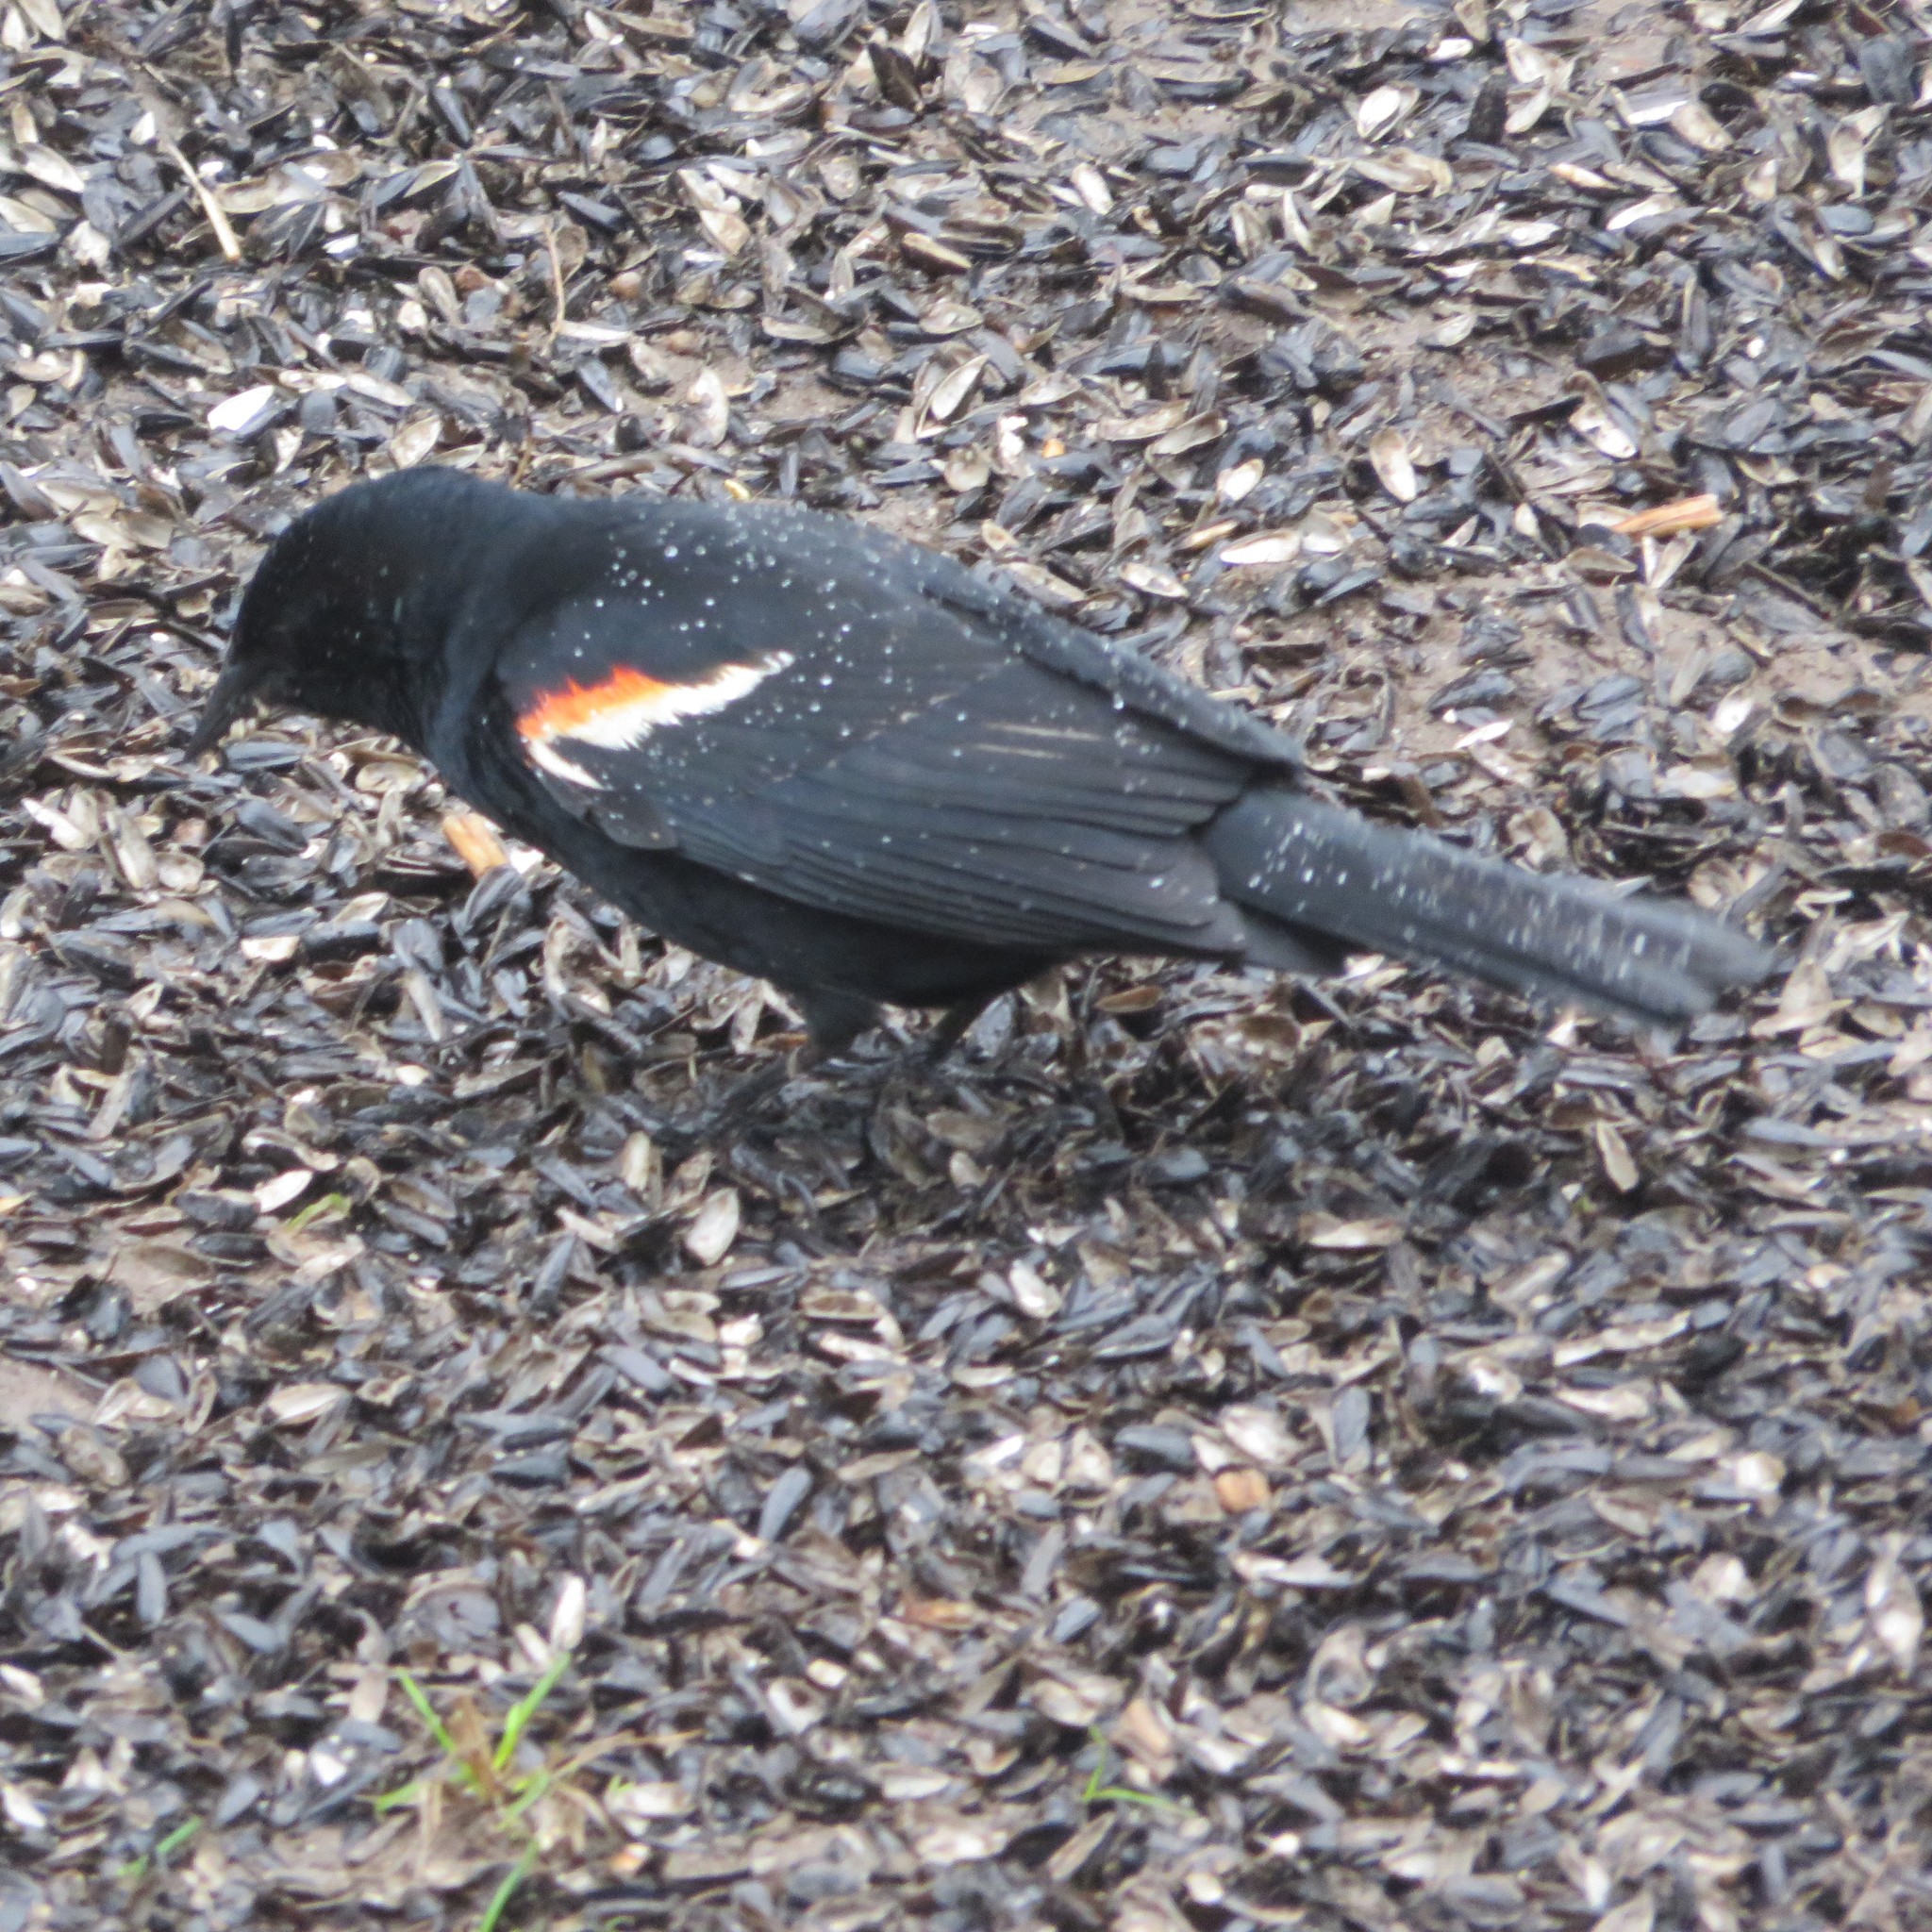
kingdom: Animalia
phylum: Chordata
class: Aves
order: Passeriformes
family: Icteridae
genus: Agelaius
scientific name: Agelaius phoeniceus
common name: Red-winged blackbird
